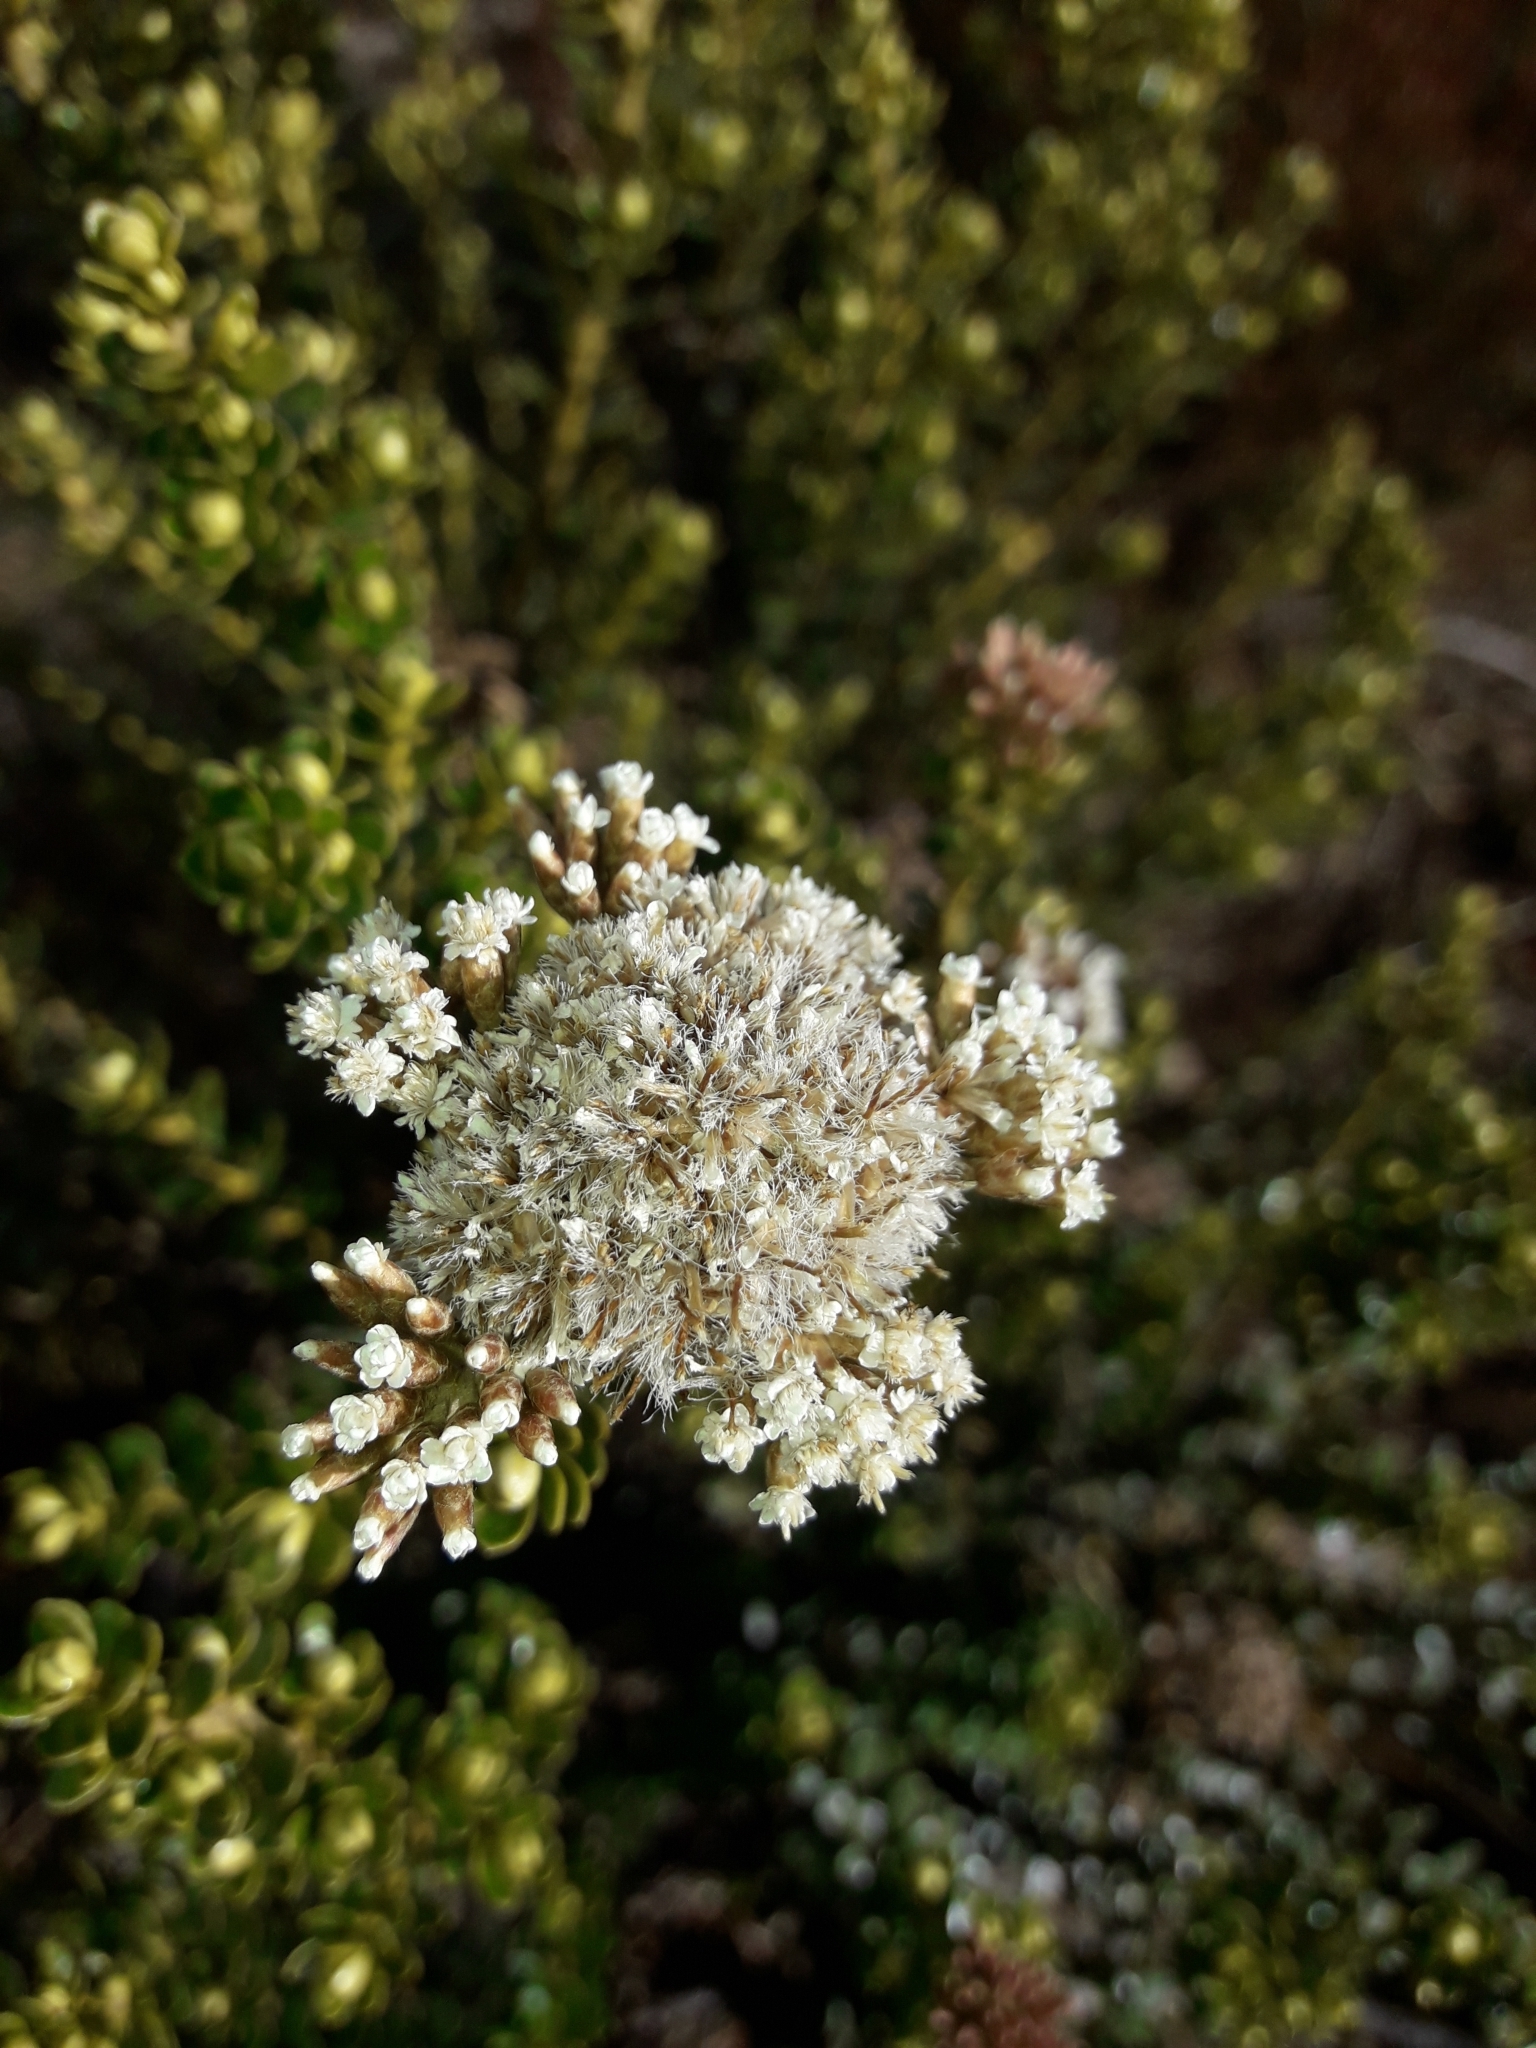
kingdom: Plantae
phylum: Tracheophyta
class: Magnoliopsida
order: Asterales
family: Asteraceae
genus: Ozothamnus
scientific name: Ozothamnus leptophyllus
